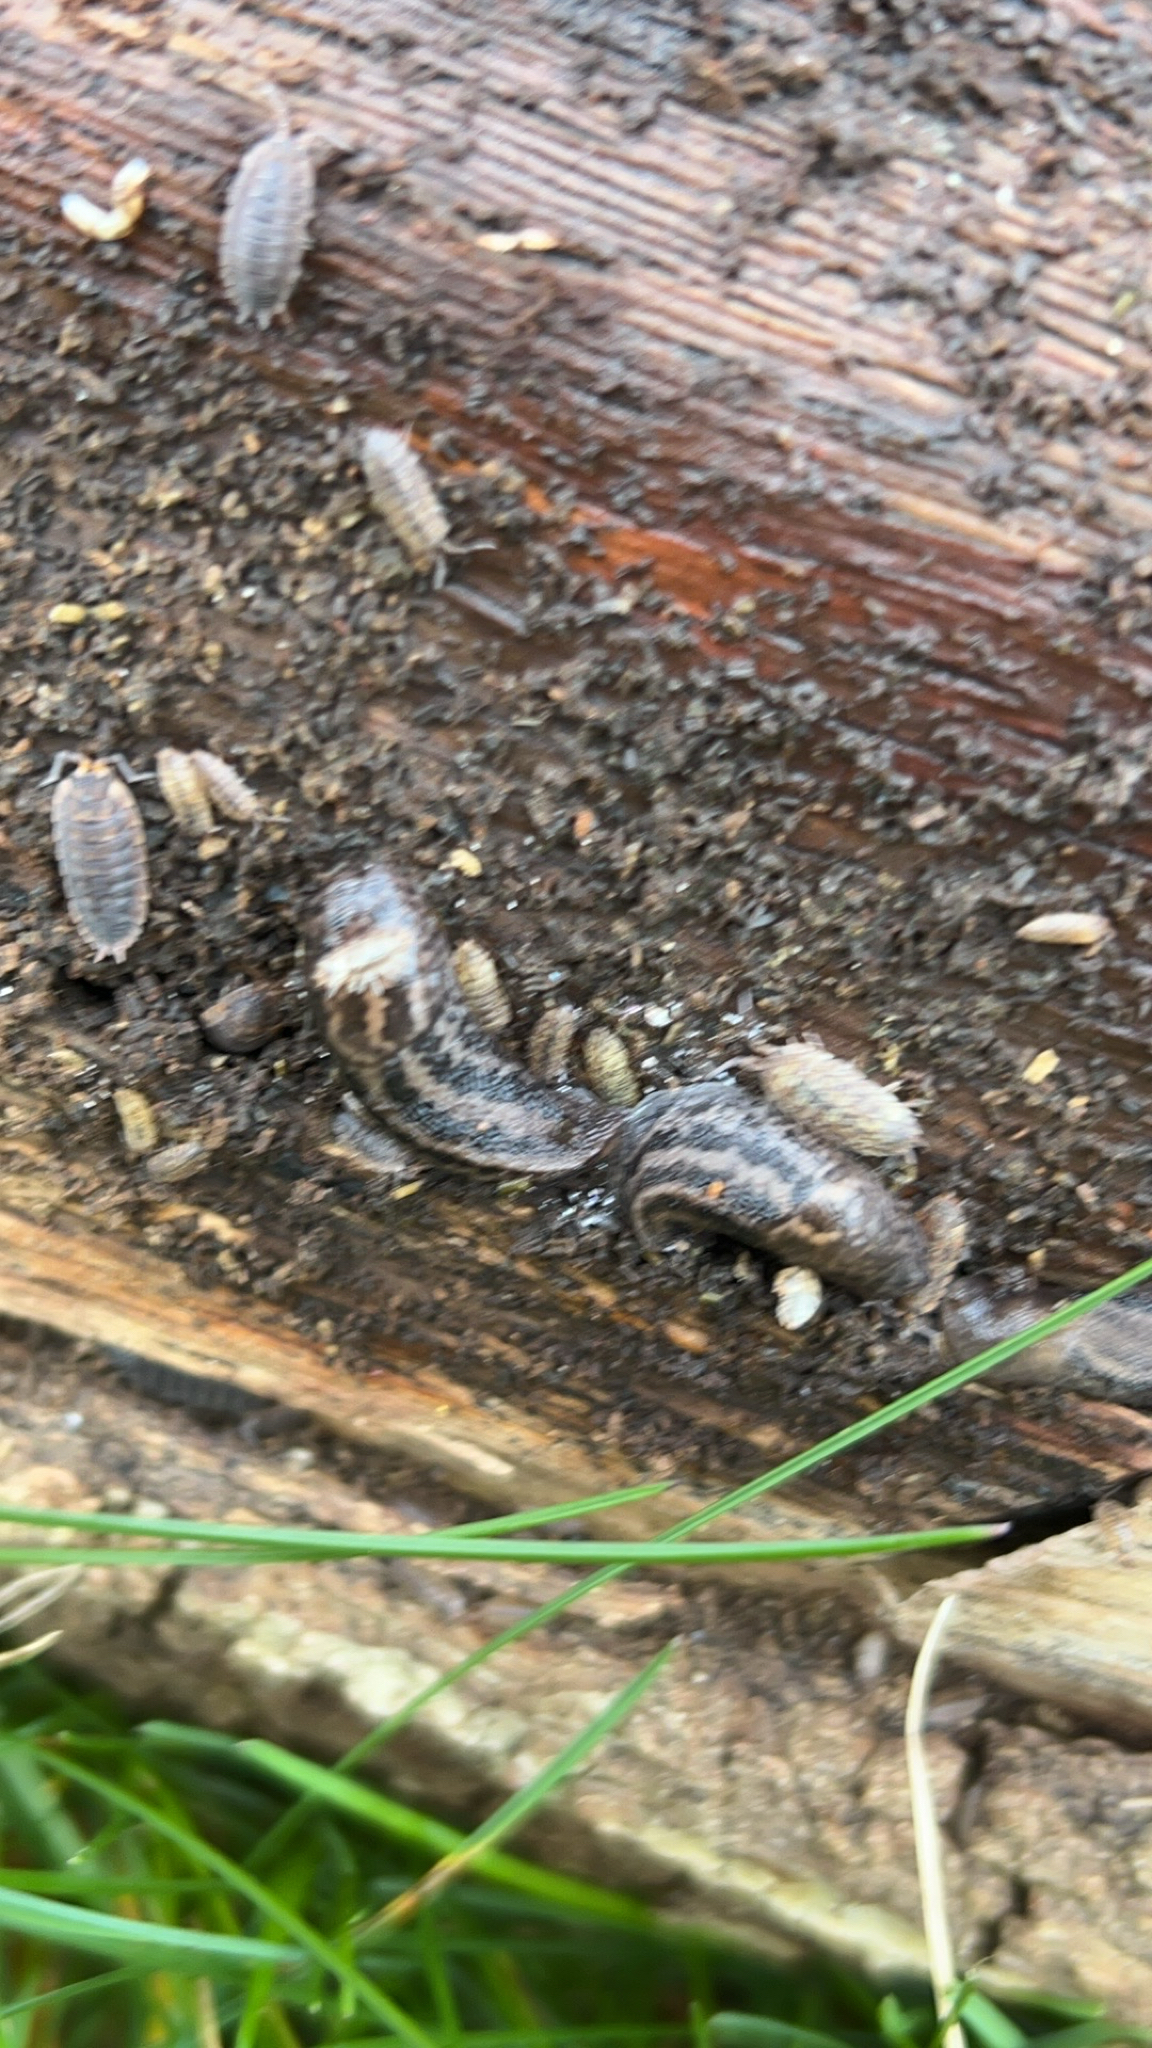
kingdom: Animalia
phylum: Mollusca
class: Gastropoda
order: Stylommatophora
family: Limacidae
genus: Limax
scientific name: Limax maximus
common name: Great grey slug
